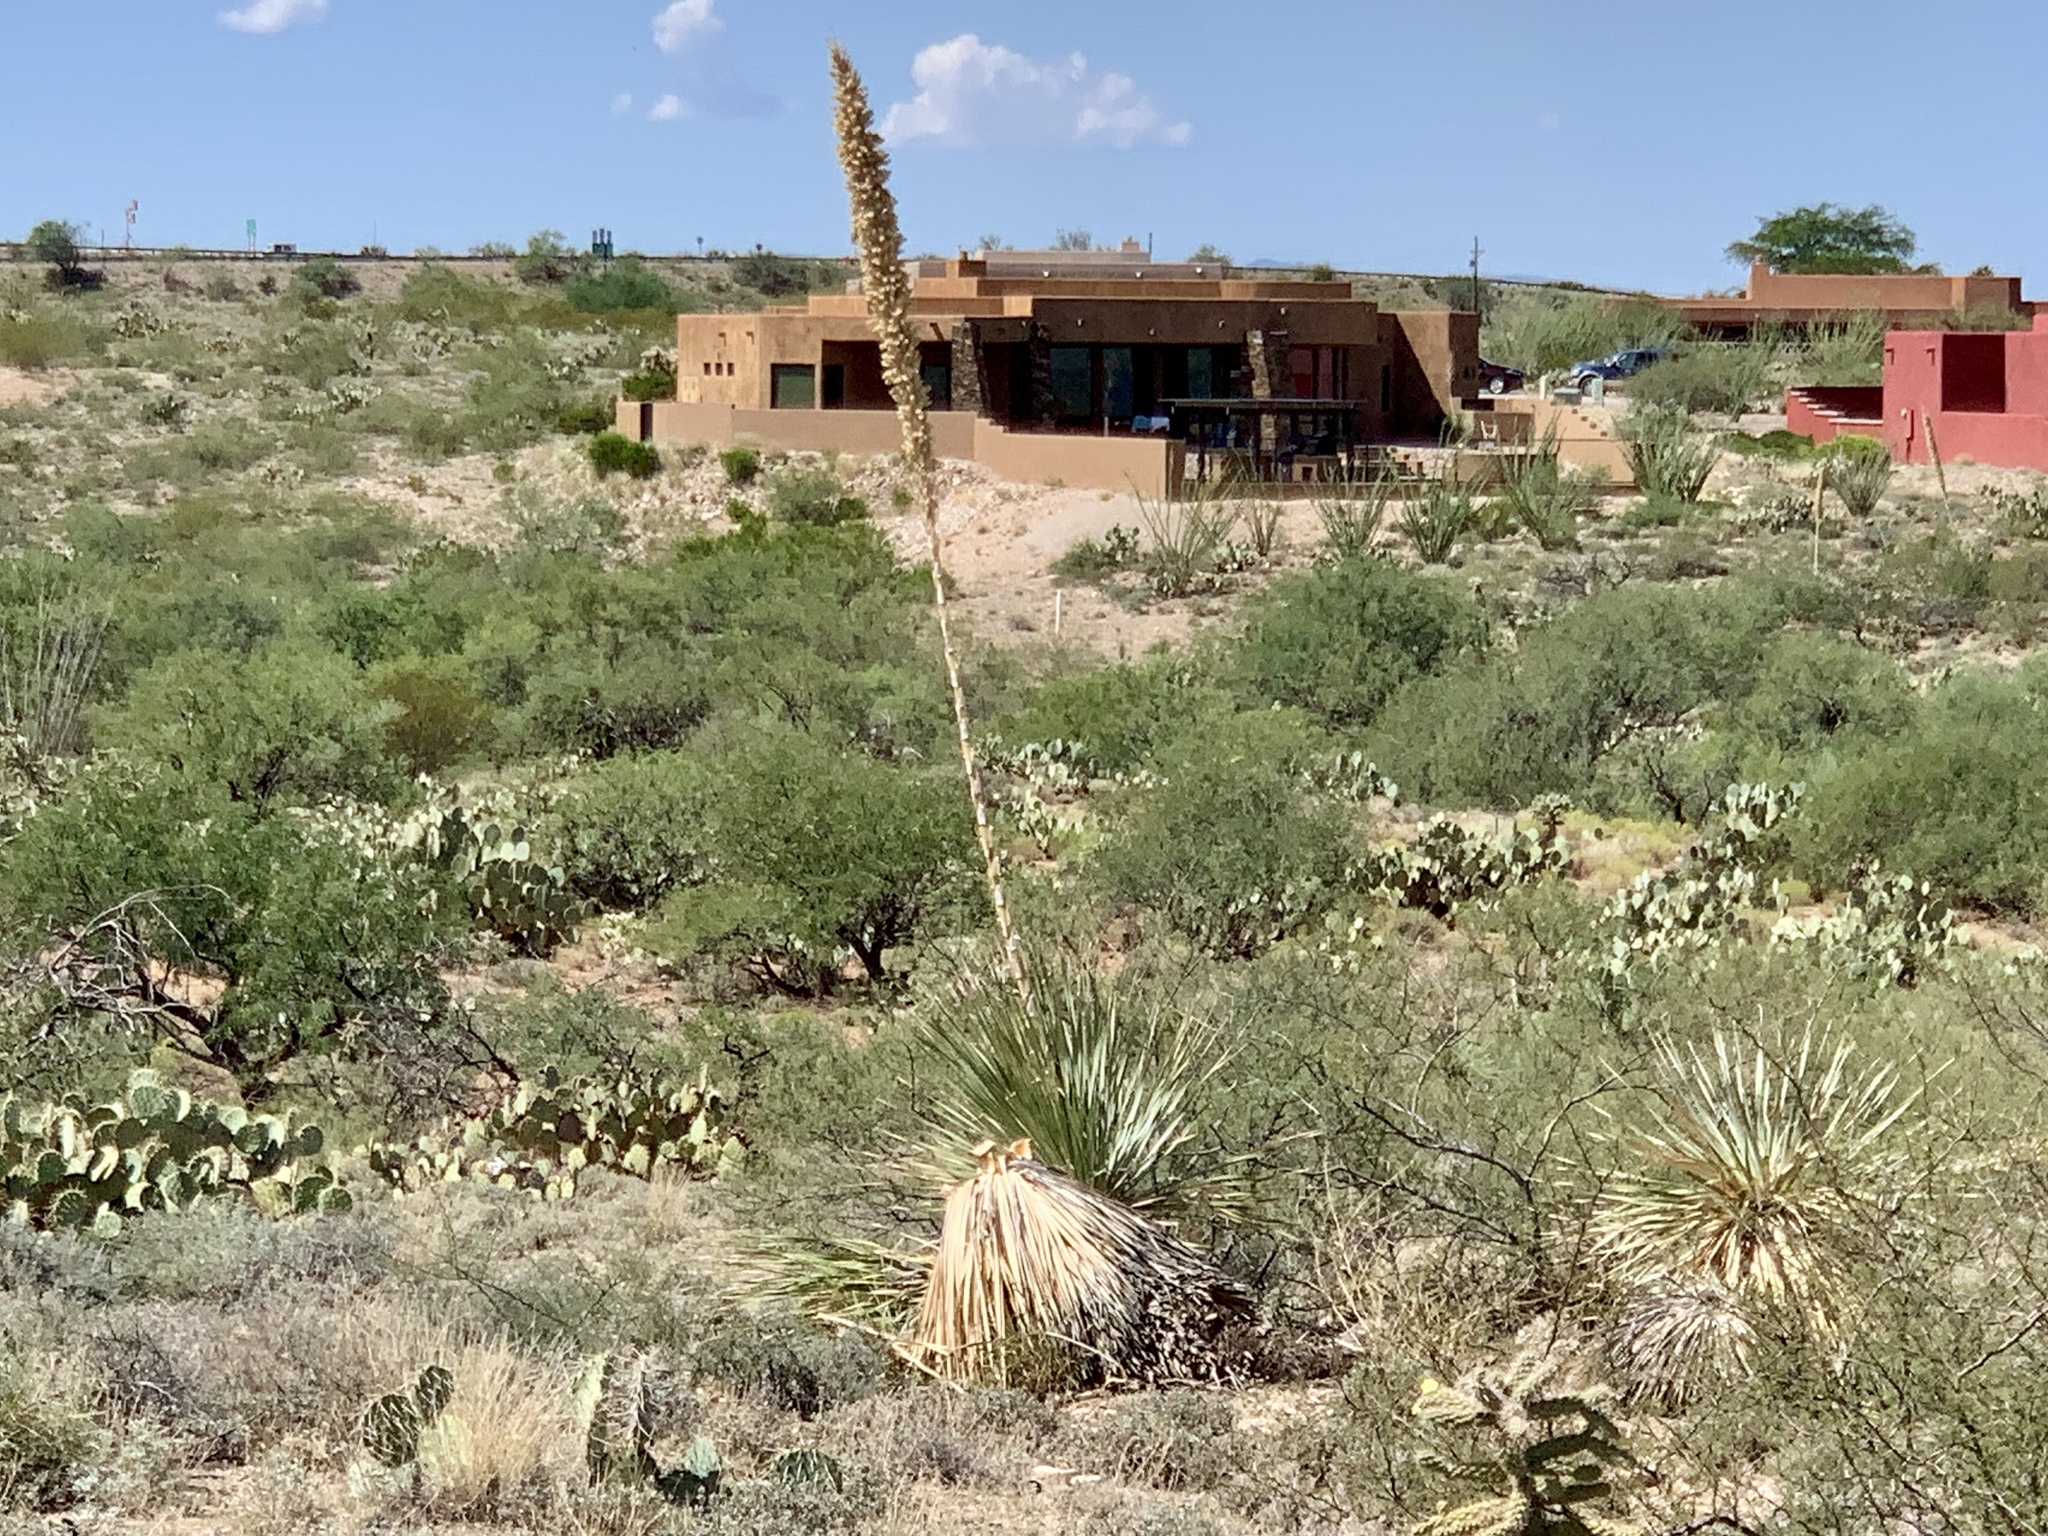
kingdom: Plantae
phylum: Tracheophyta
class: Liliopsida
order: Asparagales
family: Asparagaceae
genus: Dasylirion
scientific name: Dasylirion wheeleri
